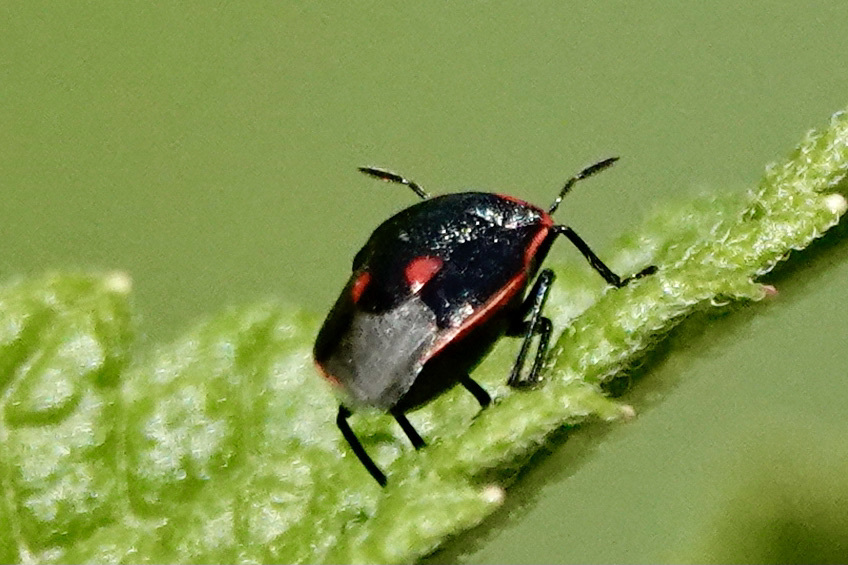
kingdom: Animalia
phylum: Arthropoda
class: Insecta
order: Hemiptera
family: Pentatomidae
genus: Cosmopepla
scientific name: Cosmopepla lintneriana
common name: Twice-stabbed stink bug
